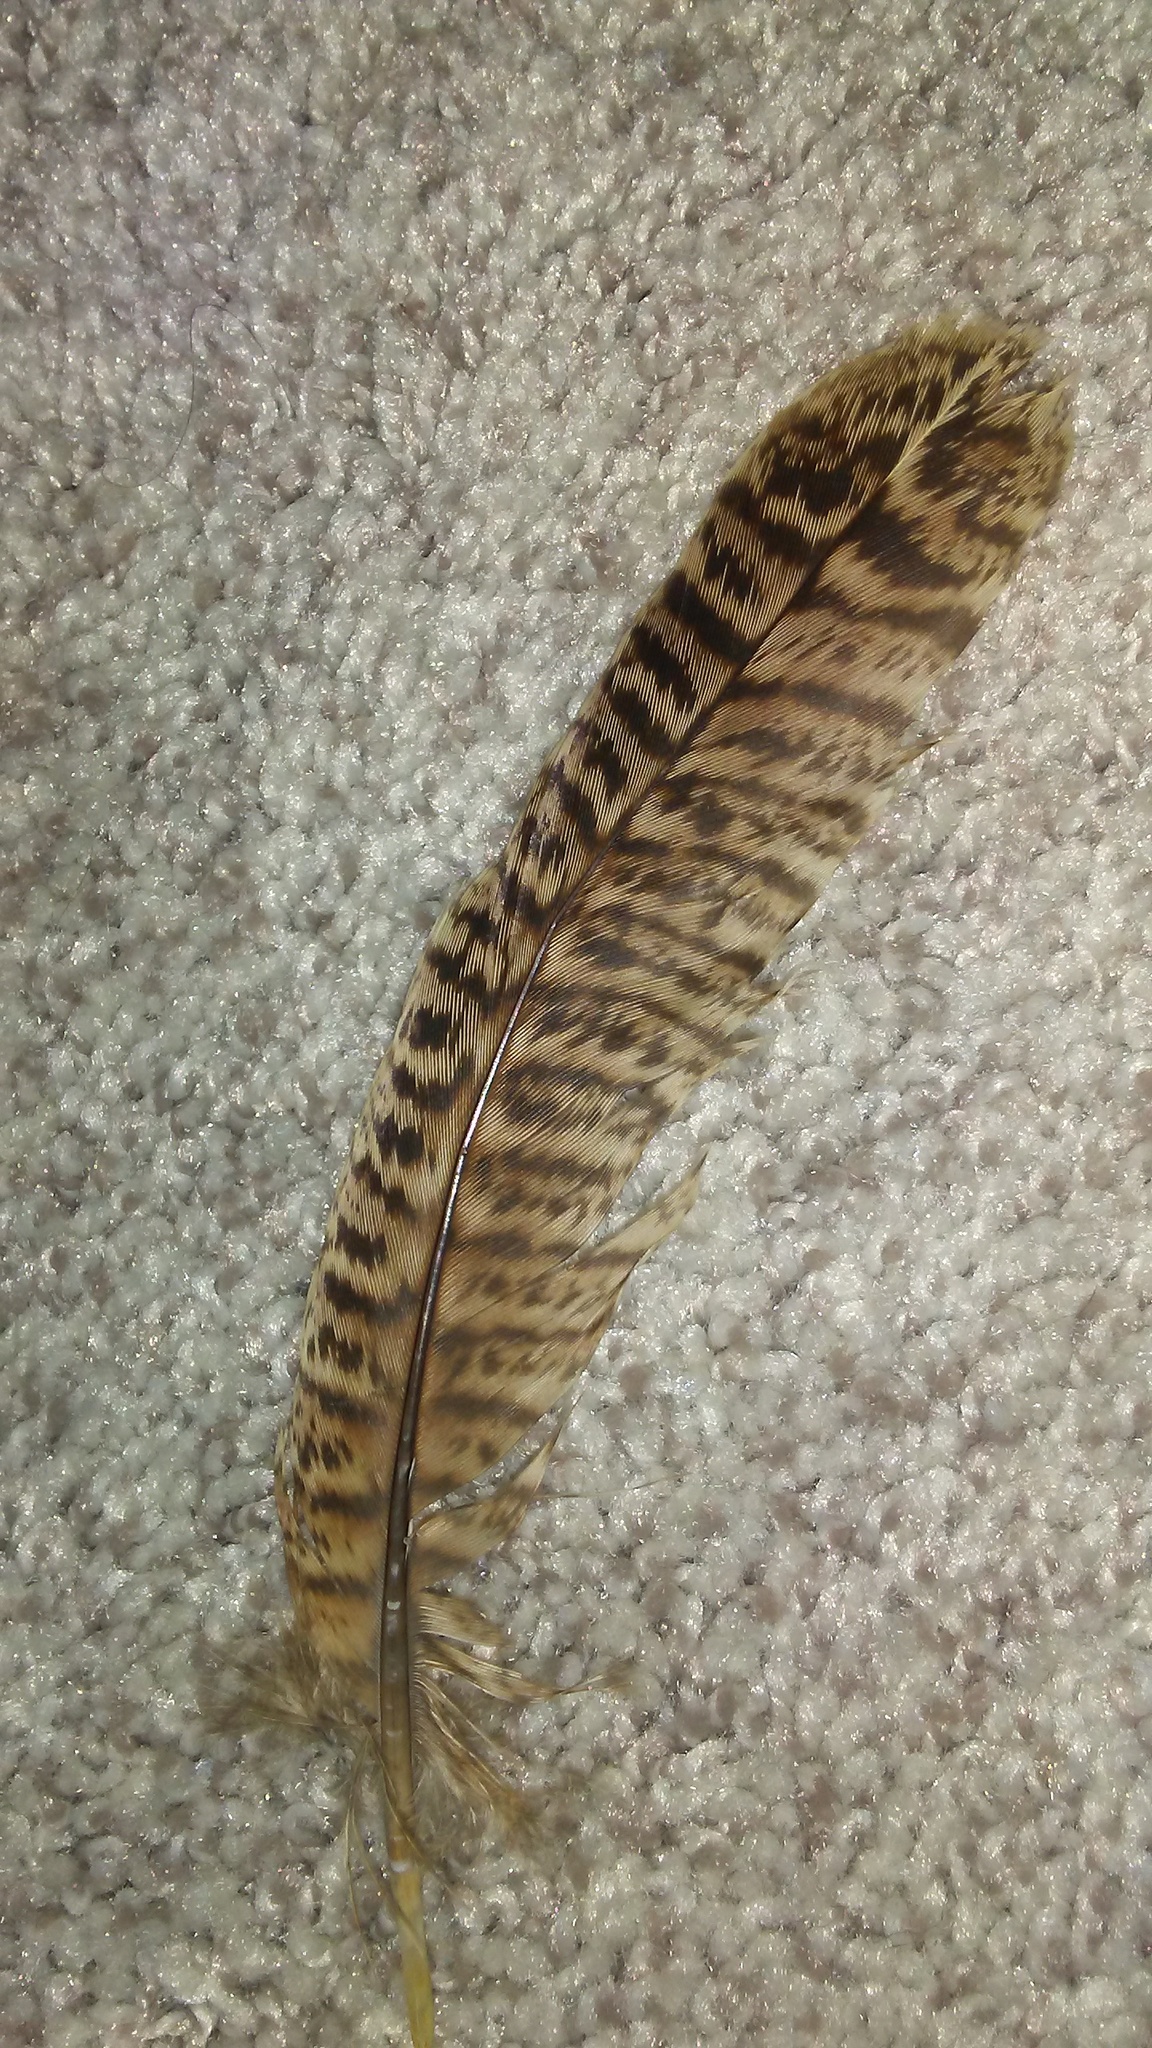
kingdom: Animalia
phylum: Chordata
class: Aves
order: Galliformes
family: Phasianidae
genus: Phasianus
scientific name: Phasianus colchicus
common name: Common pheasant
